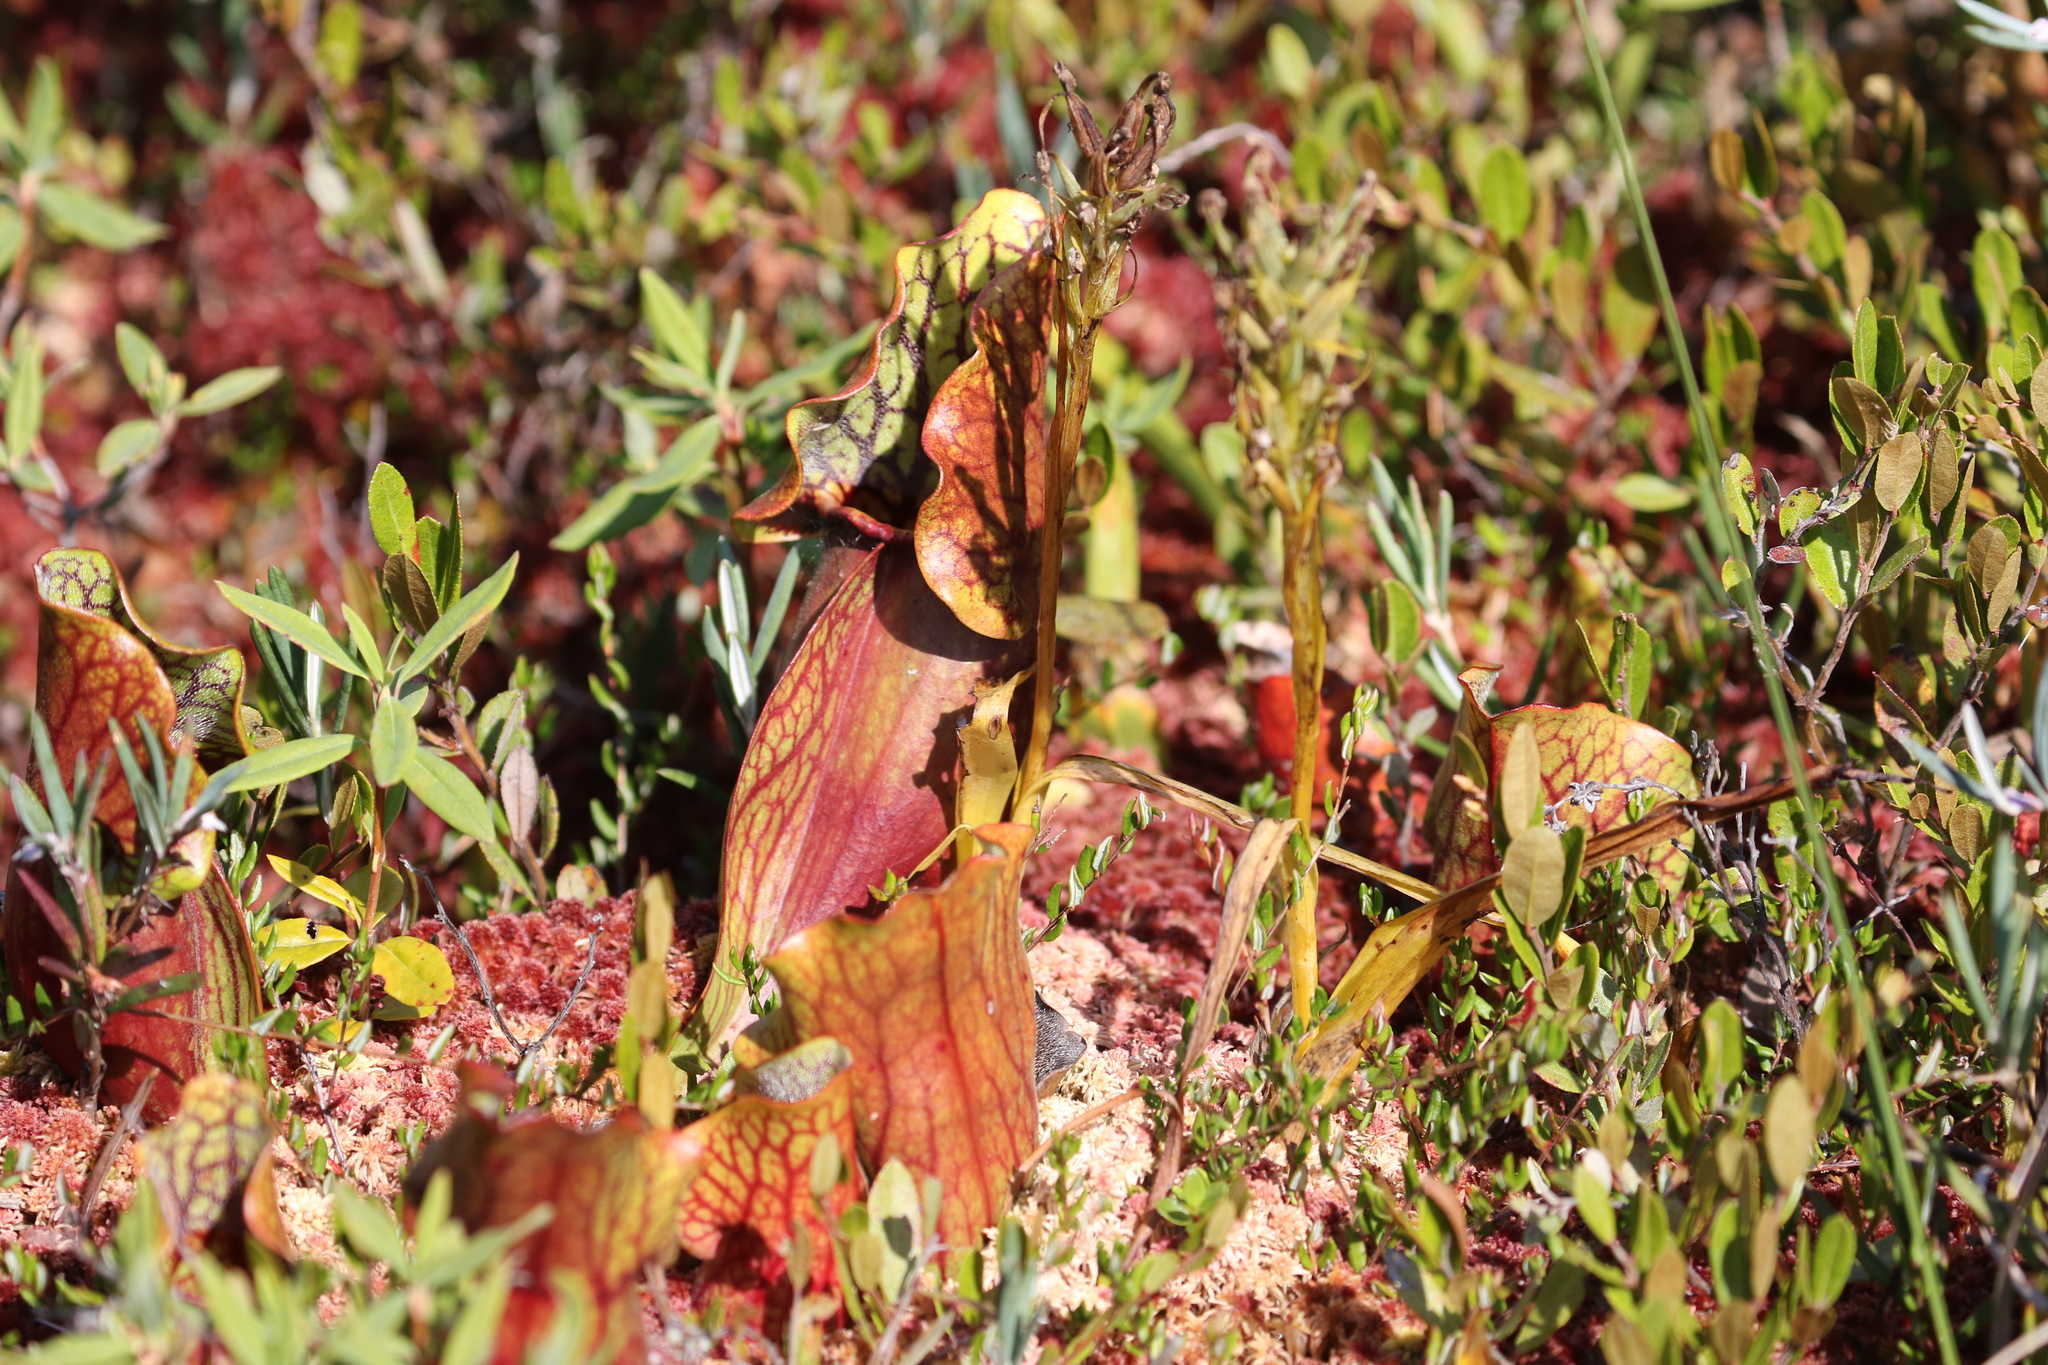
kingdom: Plantae
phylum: Tracheophyta
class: Magnoliopsida
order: Ericales
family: Sarraceniaceae
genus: Sarracenia
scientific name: Sarracenia purpurea
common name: Pitcherplant
